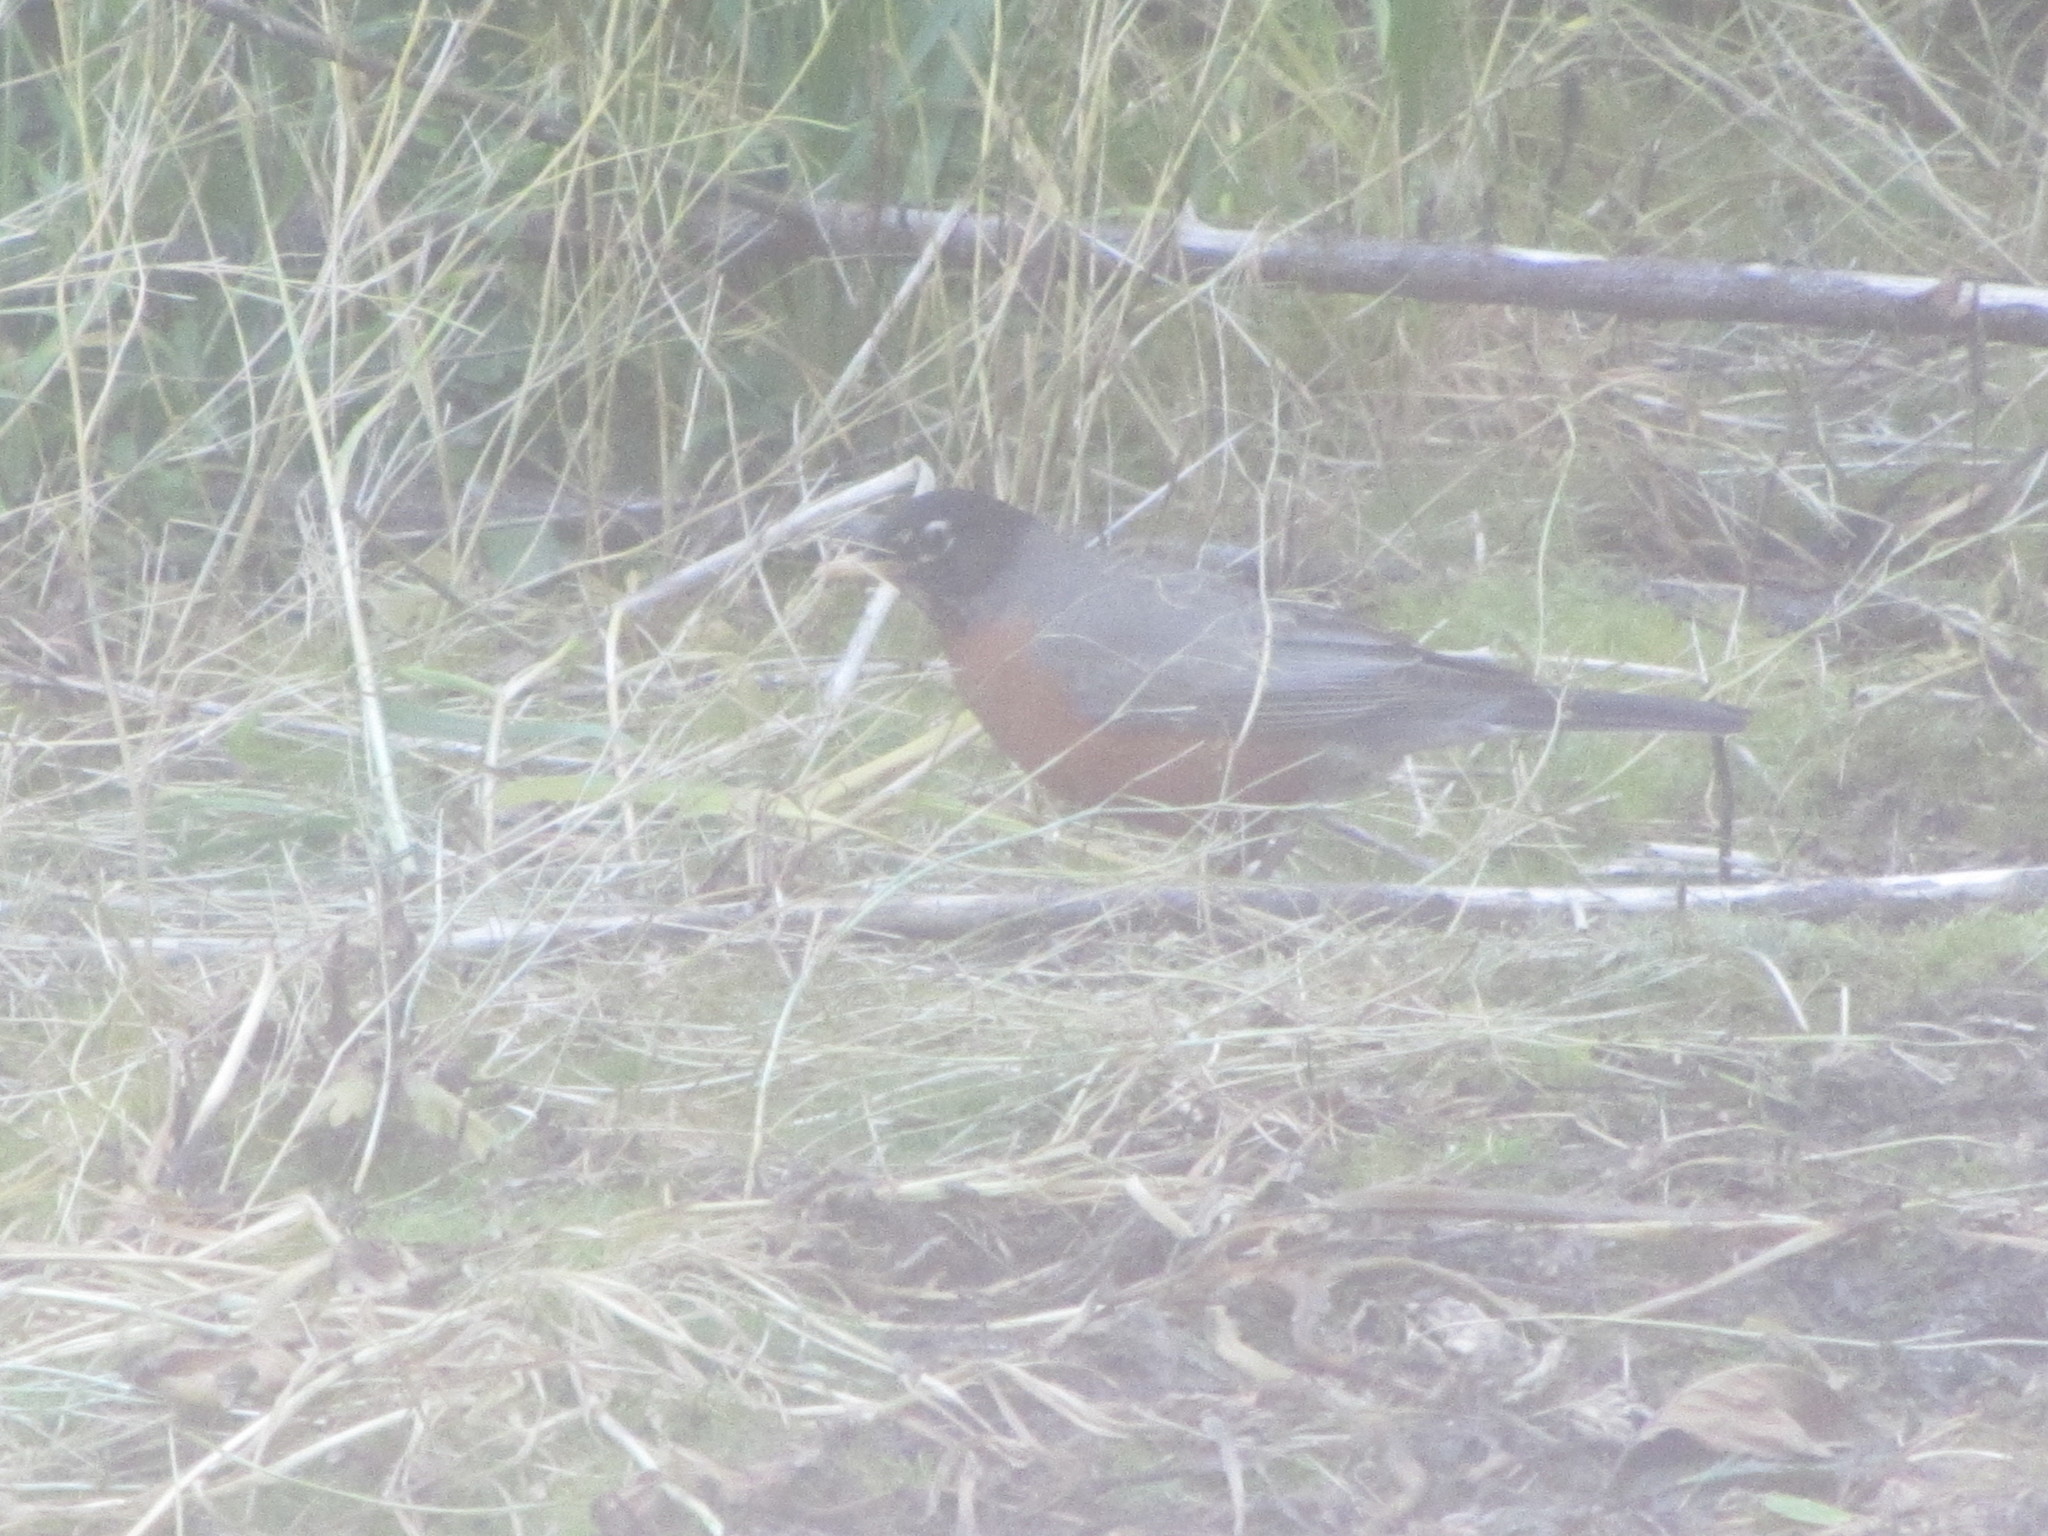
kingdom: Animalia
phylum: Chordata
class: Aves
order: Passeriformes
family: Turdidae
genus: Turdus
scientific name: Turdus migratorius
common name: American robin
